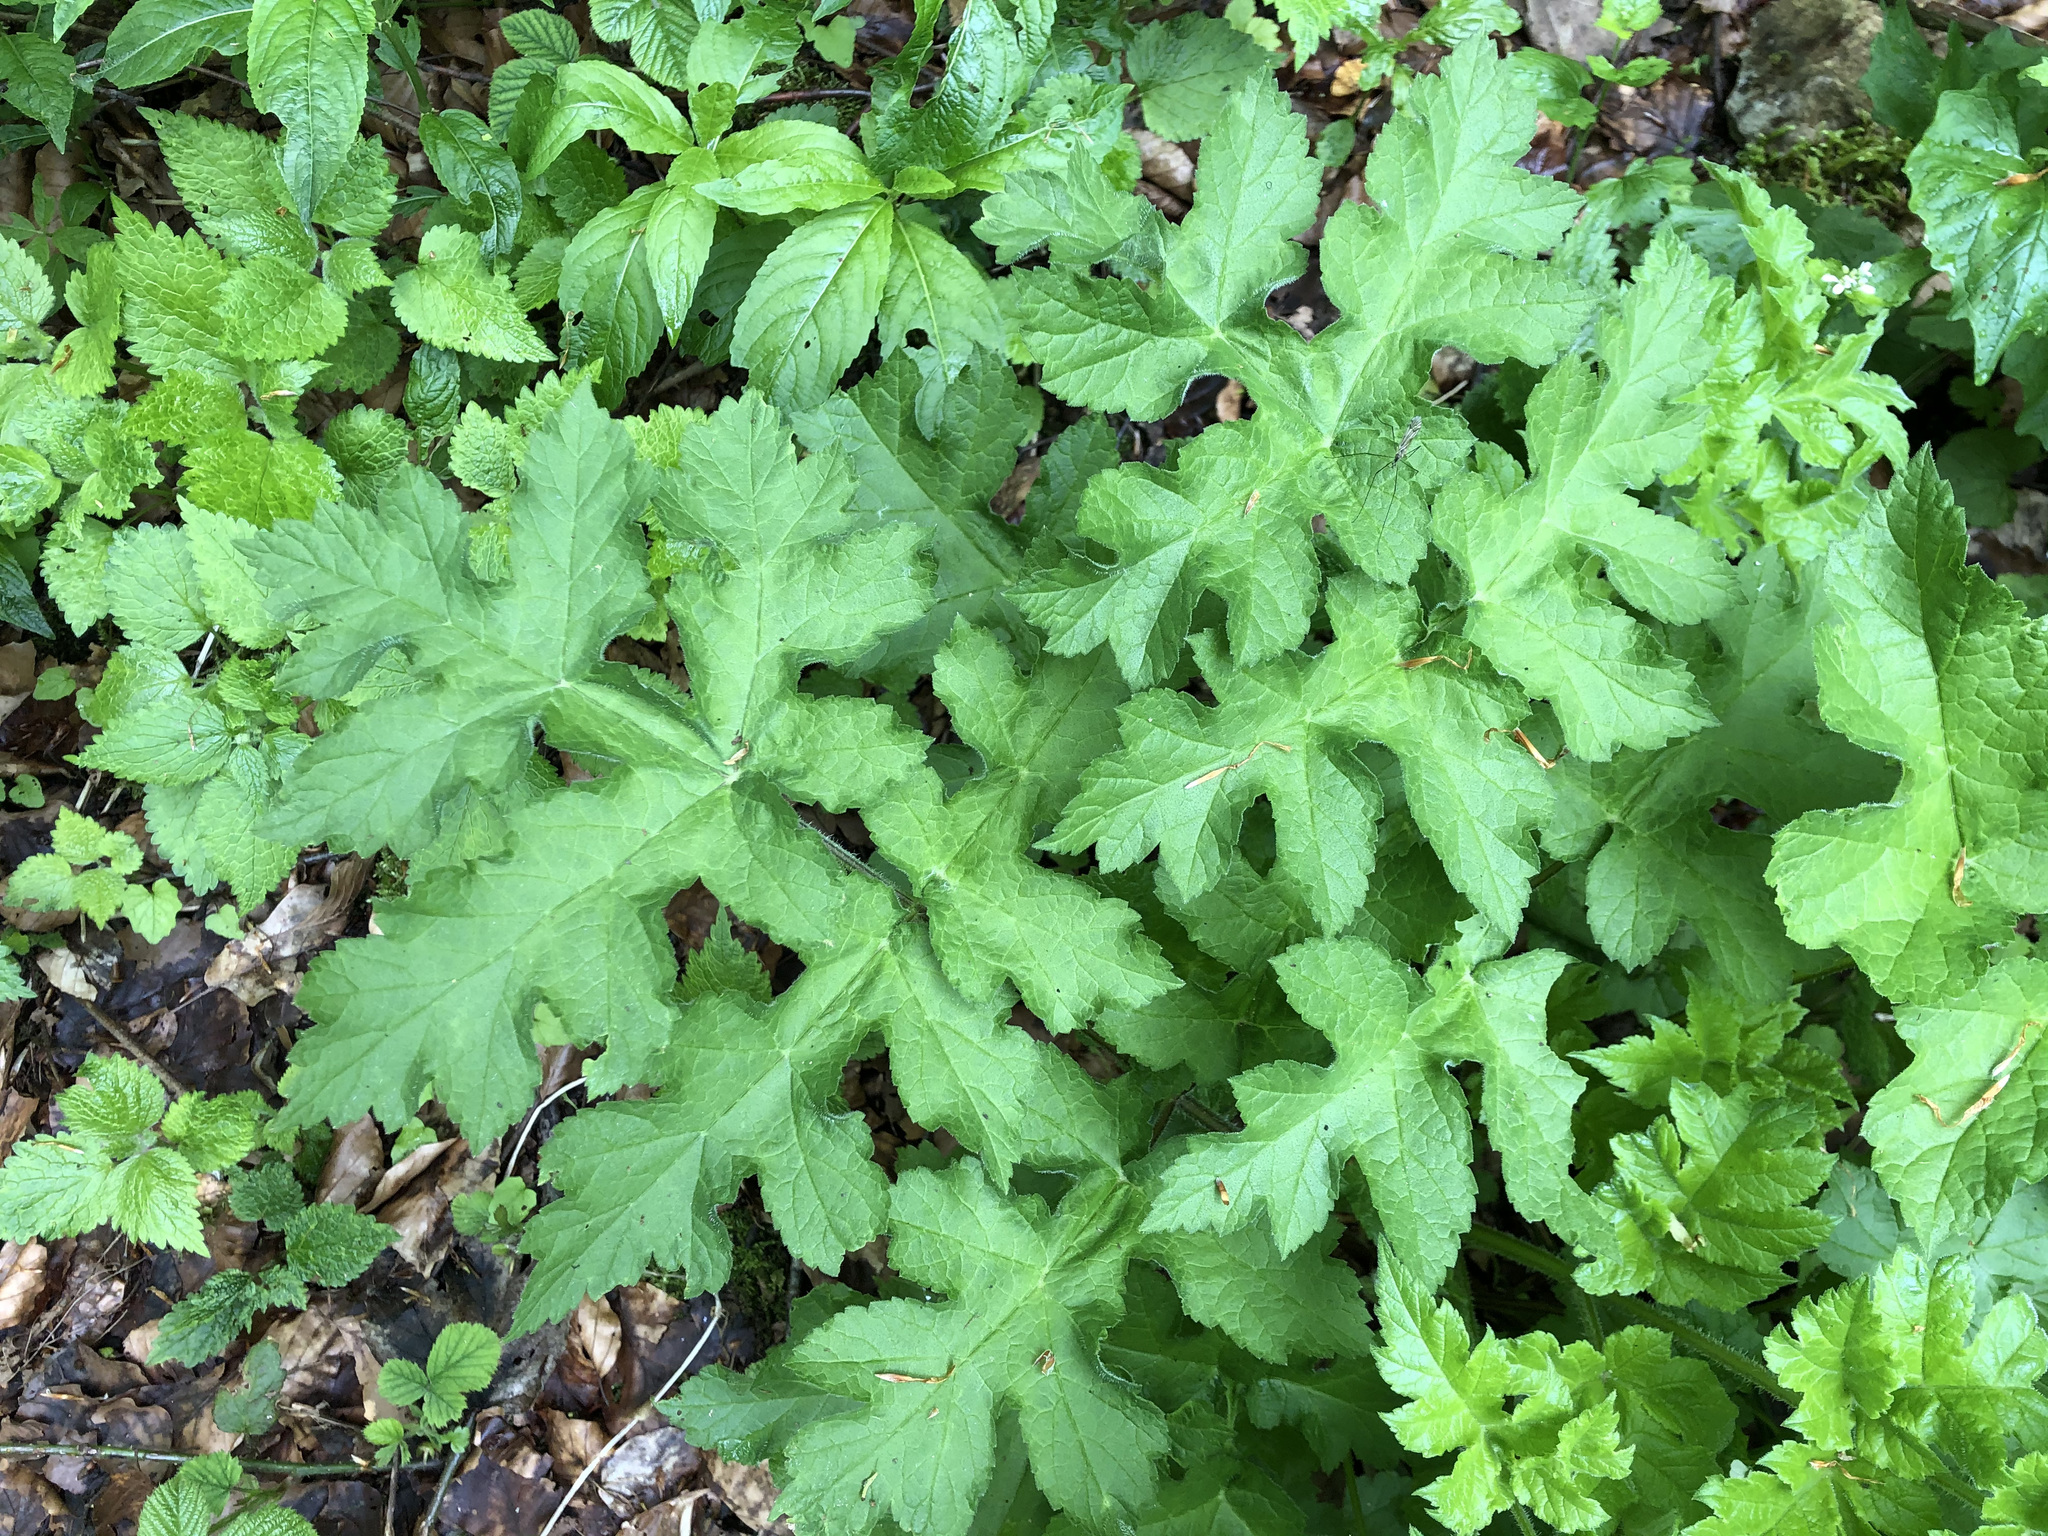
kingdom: Plantae
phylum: Tracheophyta
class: Magnoliopsida
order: Apiales
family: Apiaceae
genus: Heracleum
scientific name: Heracleum sphondylium
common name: Hogweed
